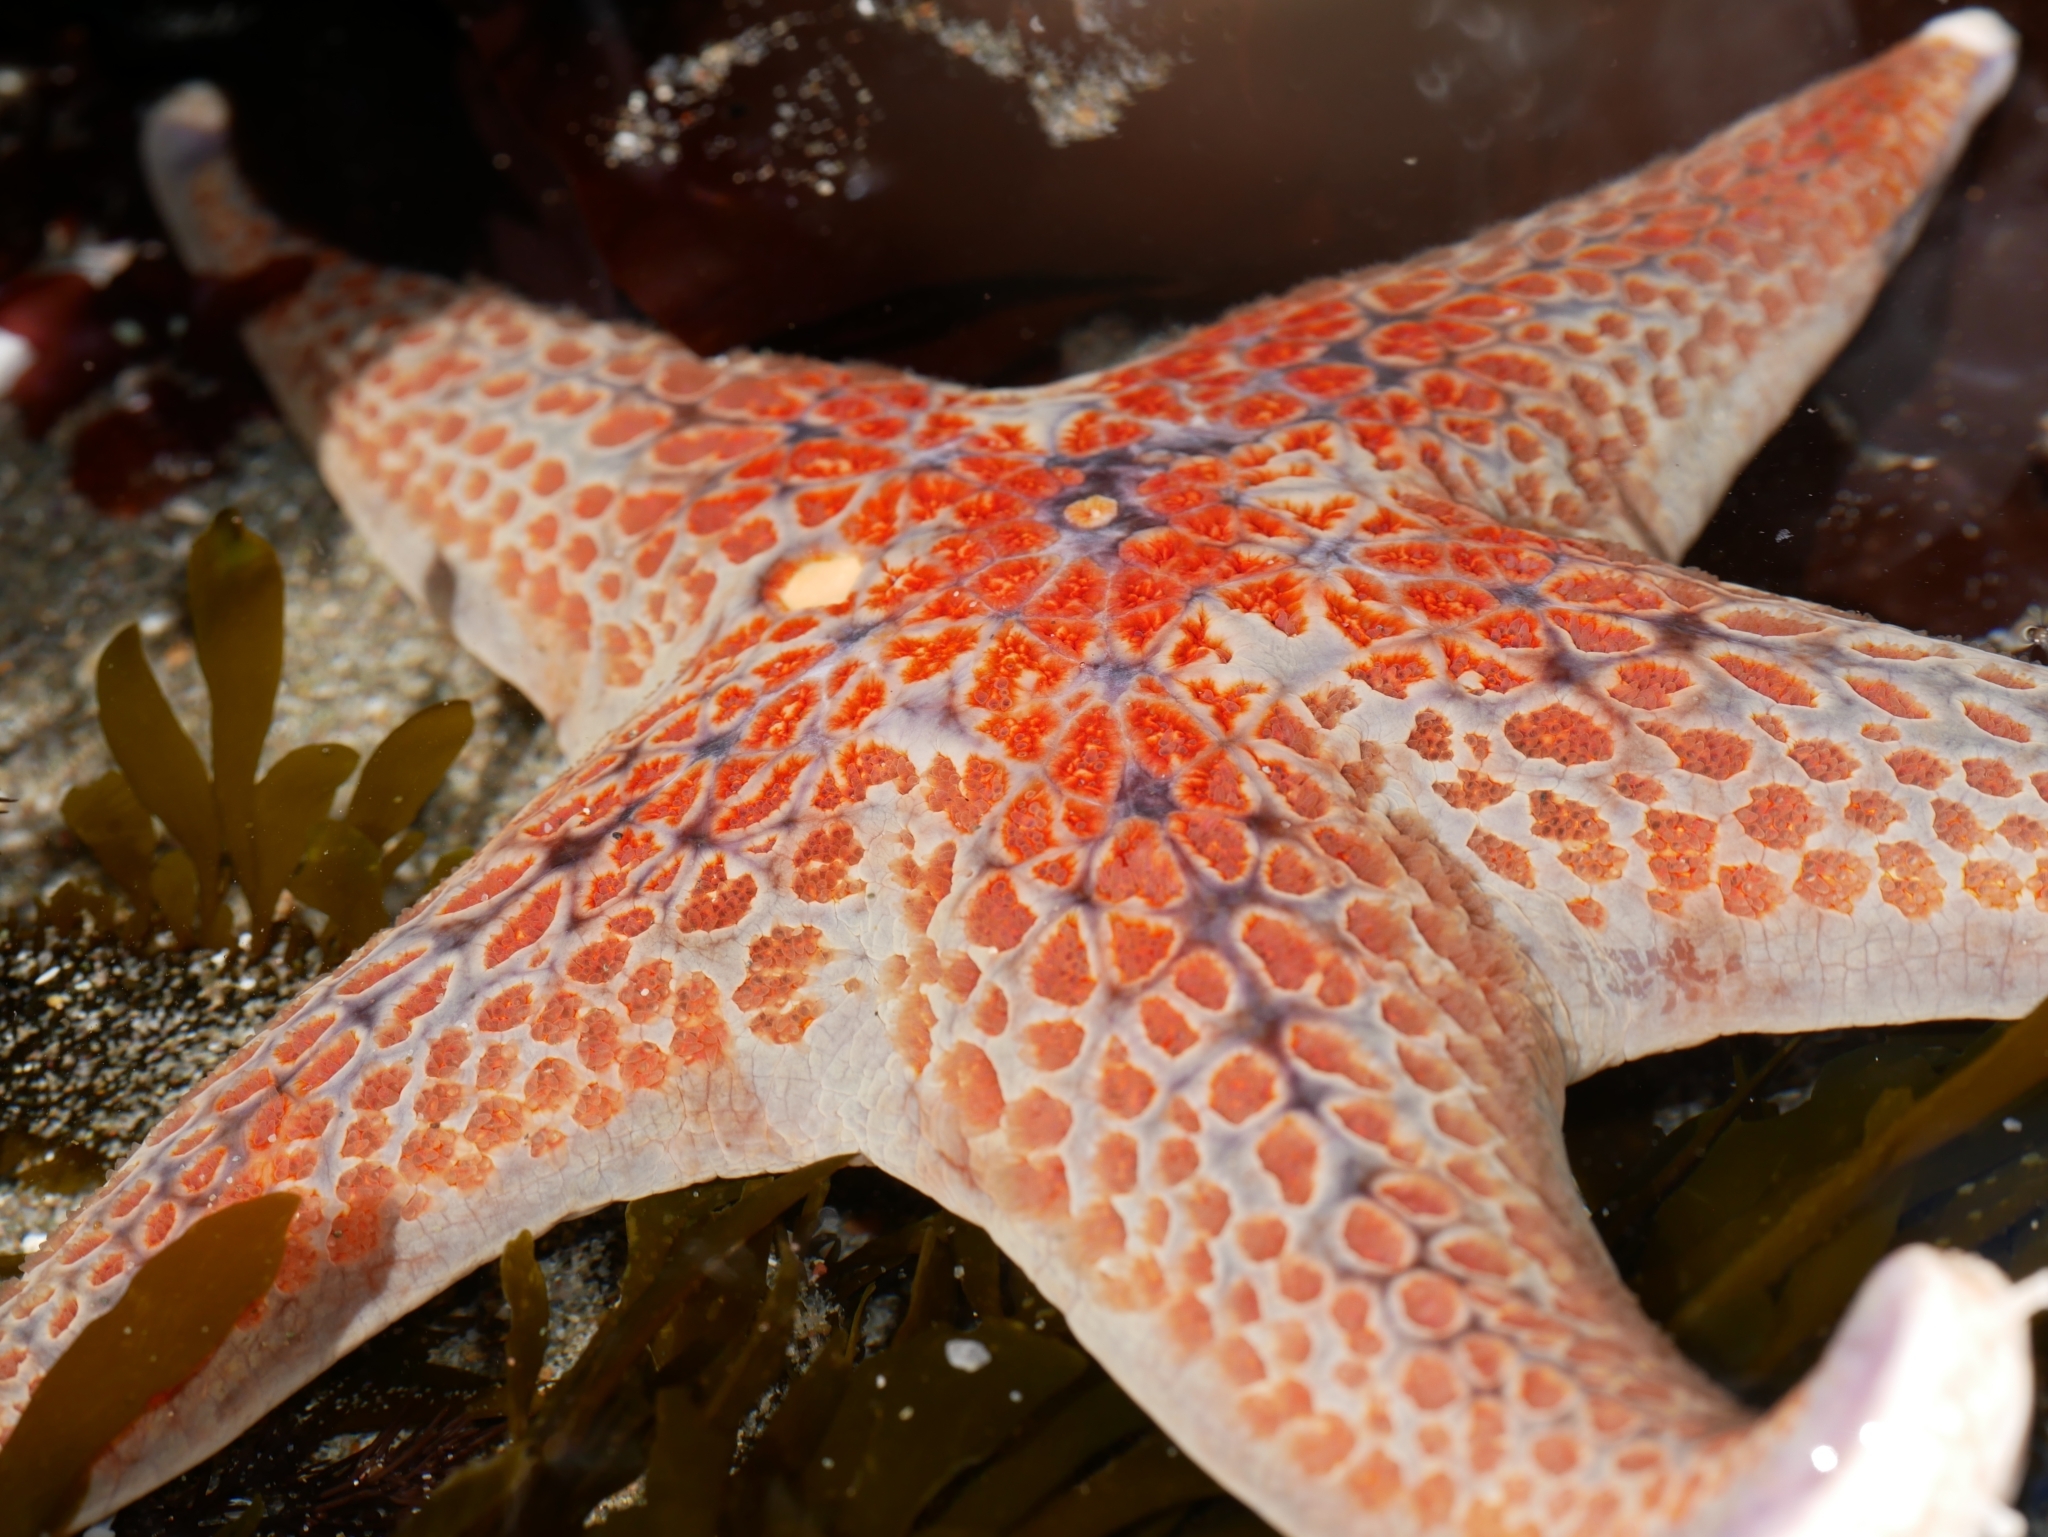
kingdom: Animalia
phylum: Echinodermata
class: Asteroidea
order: Valvatida
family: Asteropseidae
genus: Dermasterias
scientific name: Dermasterias imbricata
